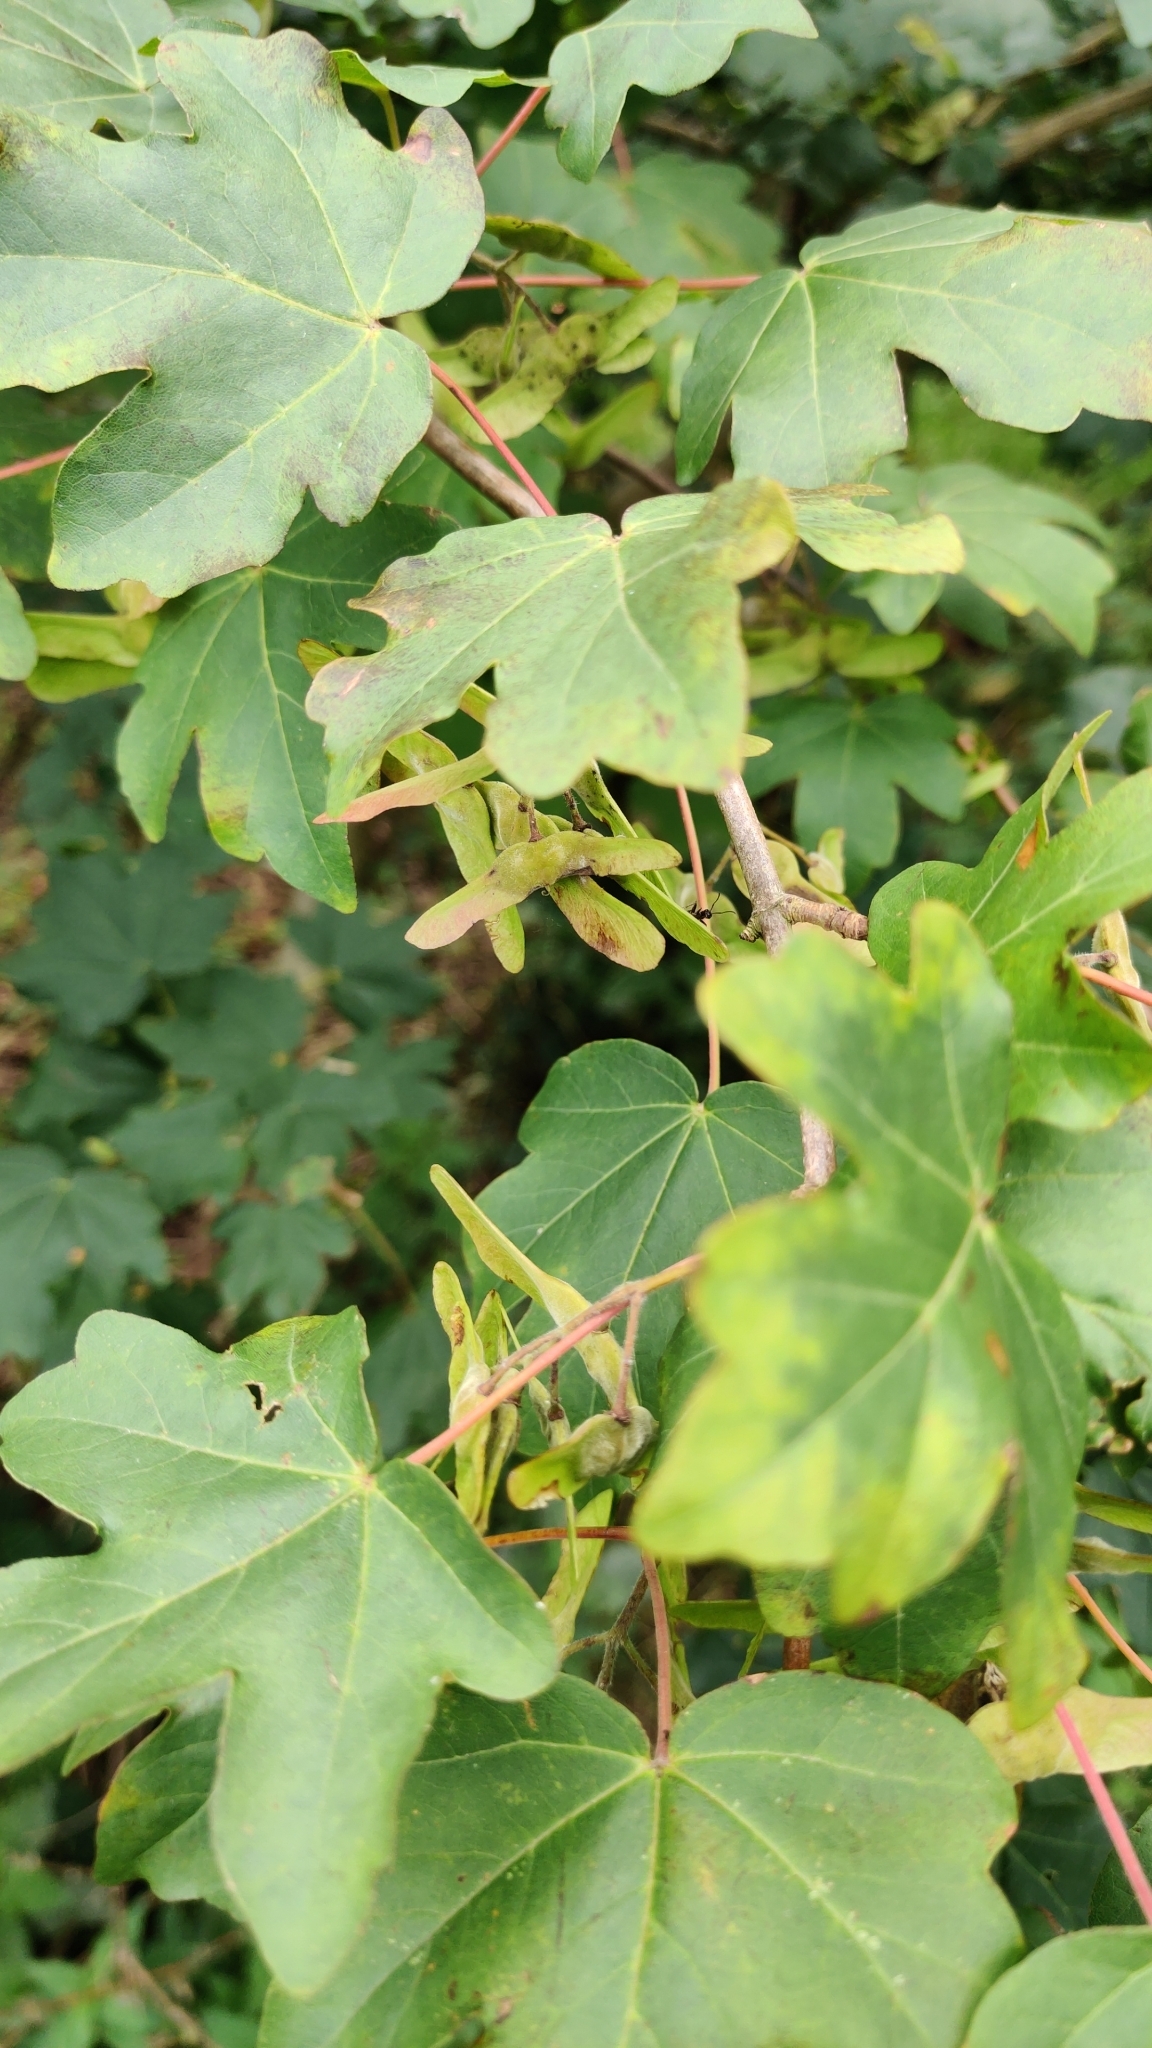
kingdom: Plantae
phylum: Tracheophyta
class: Magnoliopsida
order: Sapindales
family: Sapindaceae
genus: Acer
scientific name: Acer campestre
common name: Field maple
